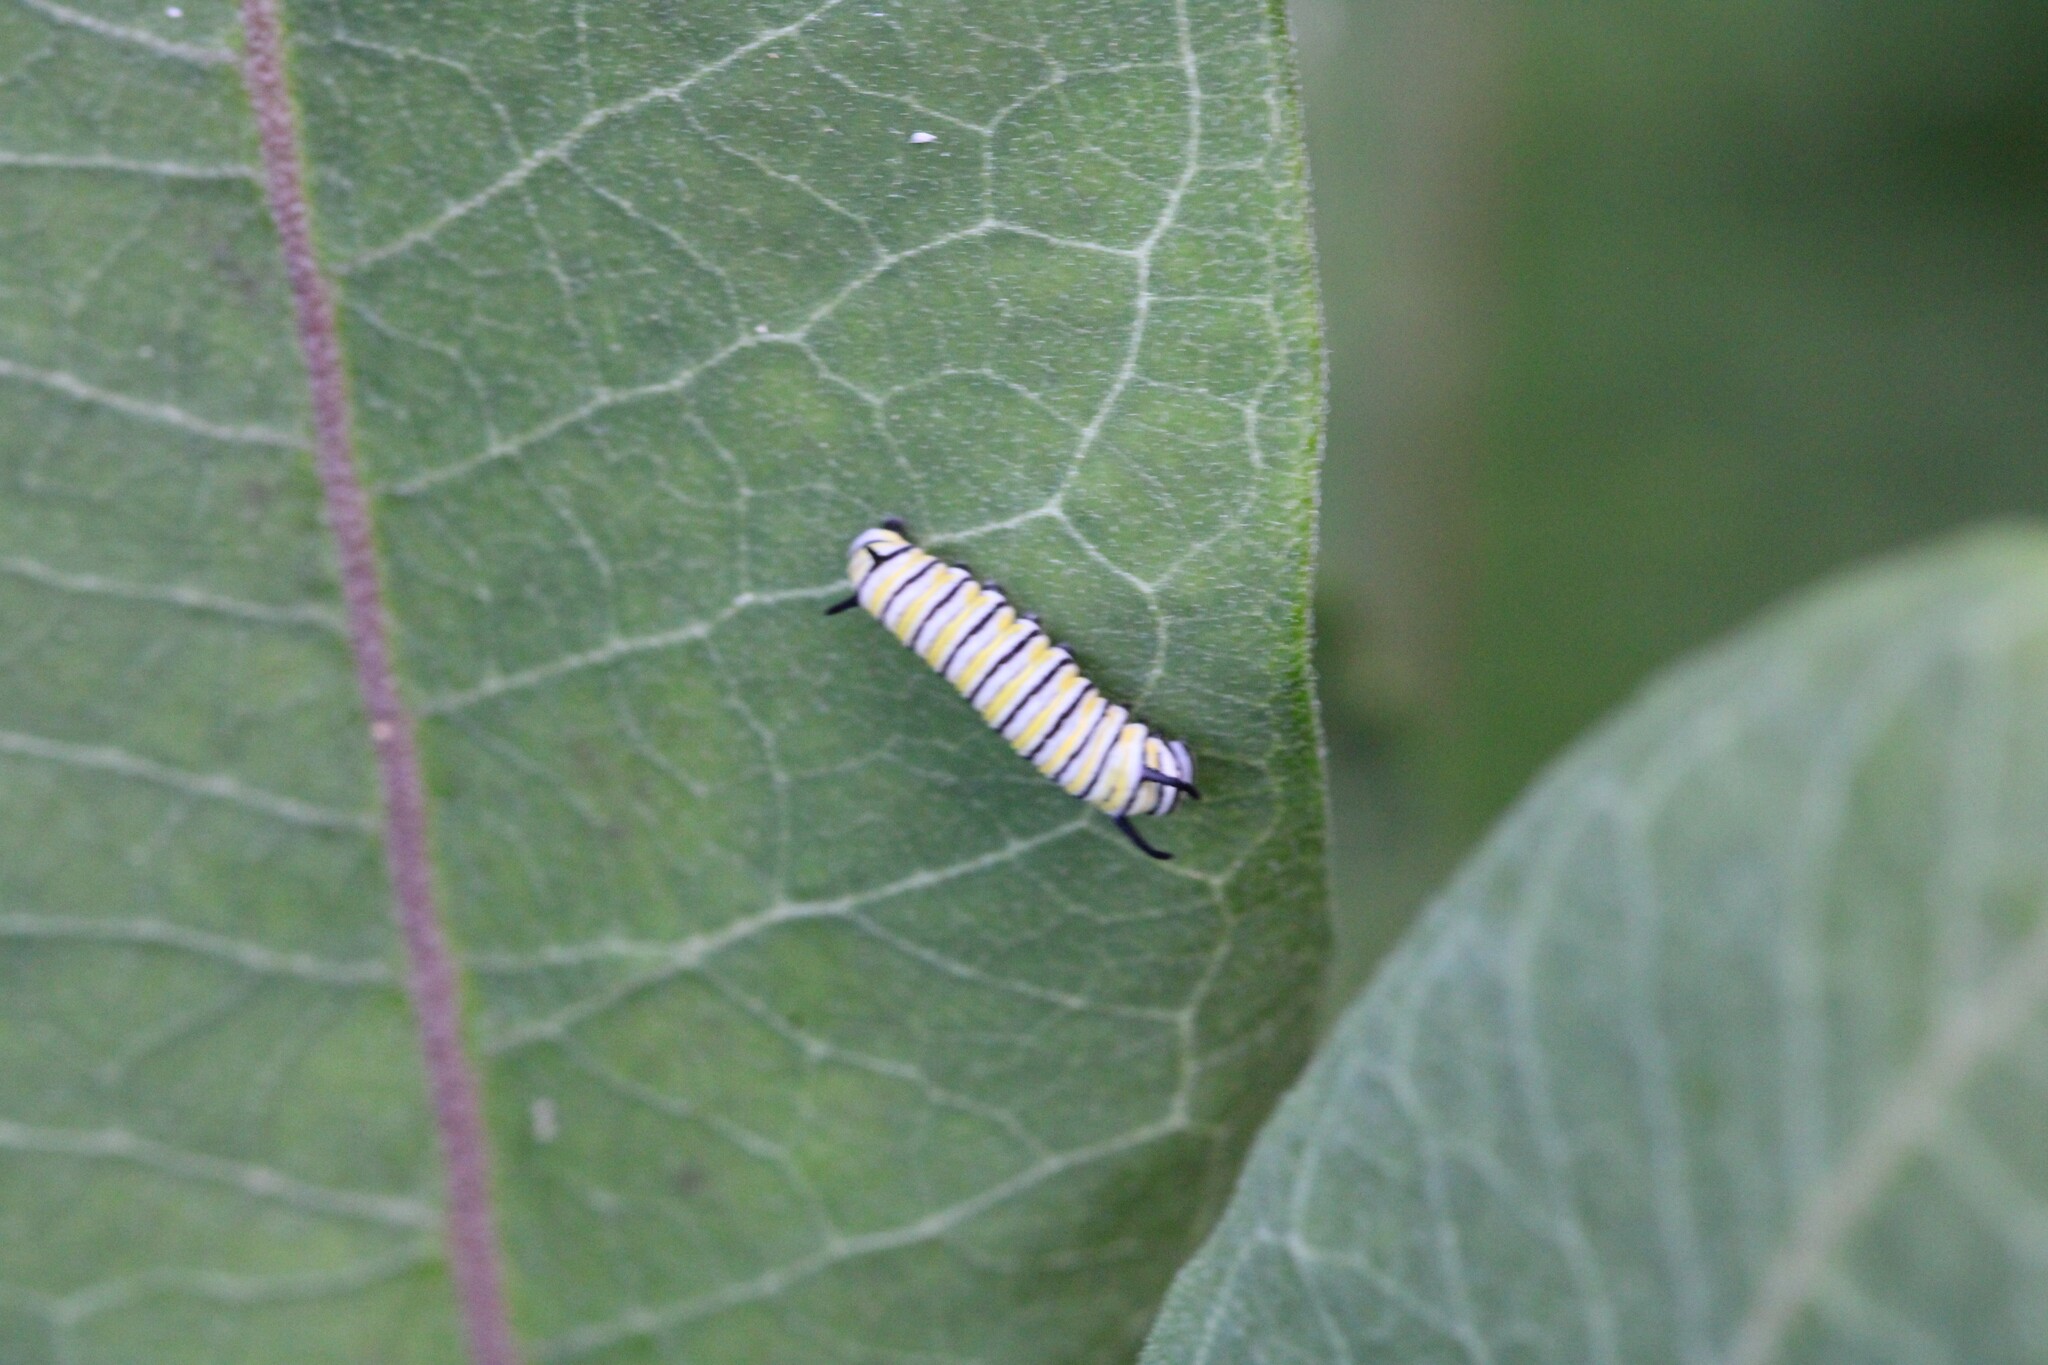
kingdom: Animalia
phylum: Arthropoda
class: Insecta
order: Lepidoptera
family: Nymphalidae
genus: Danaus
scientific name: Danaus plexippus
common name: Monarch
